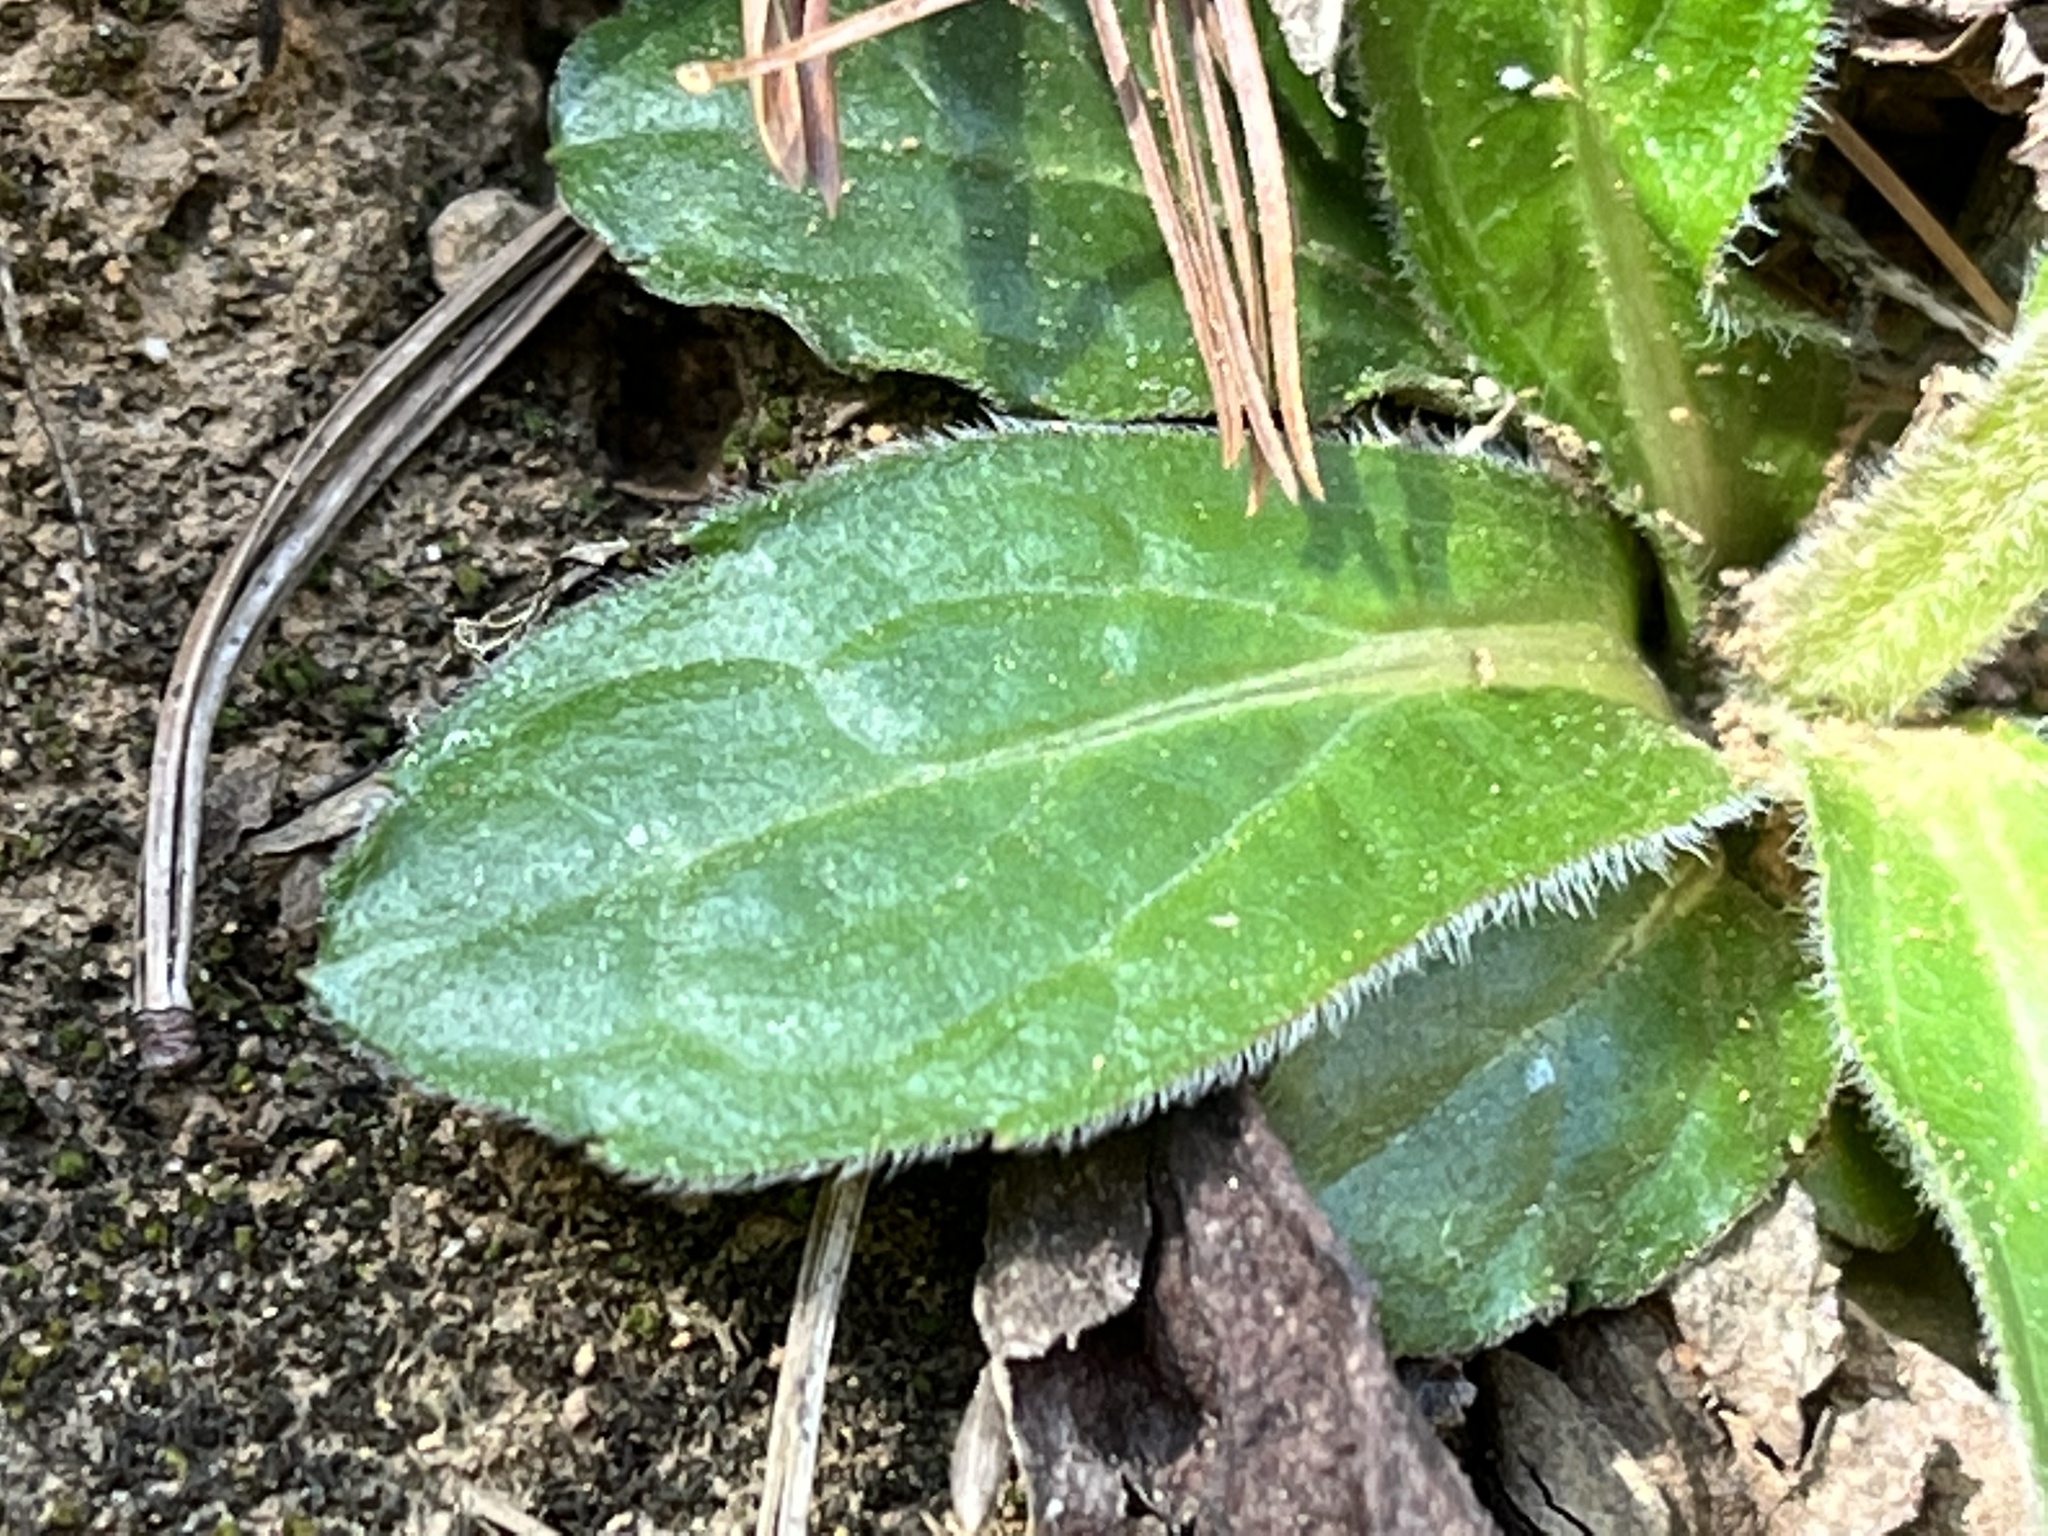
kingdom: Plantae
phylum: Tracheophyta
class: Magnoliopsida
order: Asterales
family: Asteraceae
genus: Erigeron
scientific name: Erigeron pulchellus
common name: Hairy fleabane
